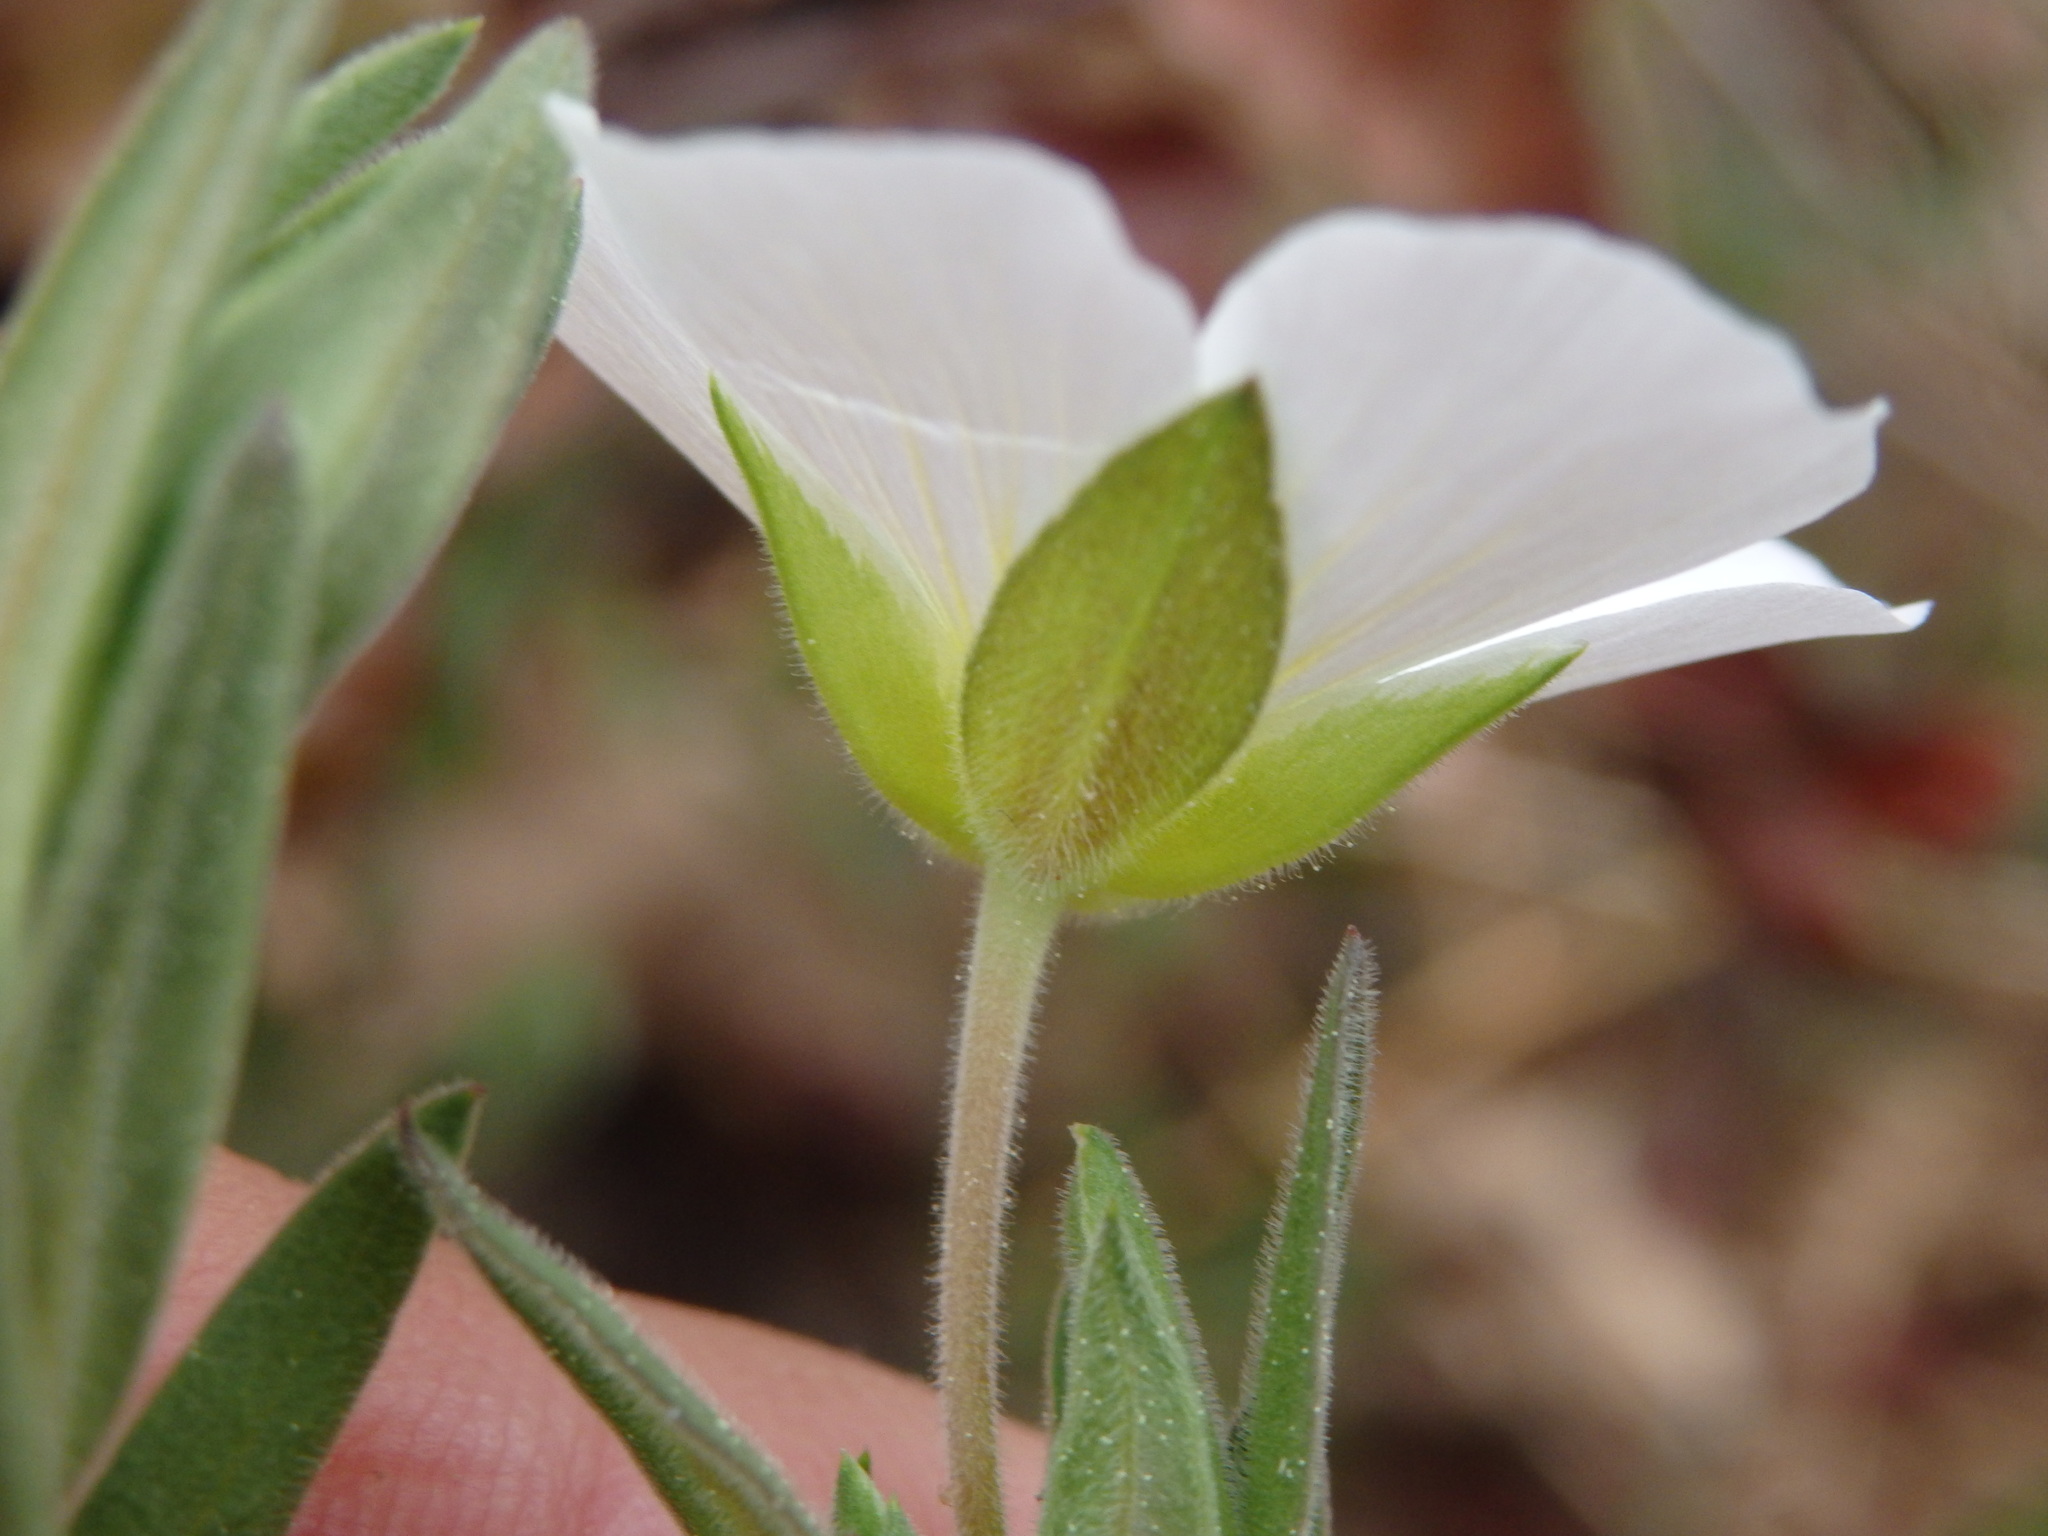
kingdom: Plantae
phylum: Tracheophyta
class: Magnoliopsida
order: Caryophyllales
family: Caryophyllaceae
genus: Arenaria
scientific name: Arenaria montana
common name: Mountain sandwort
